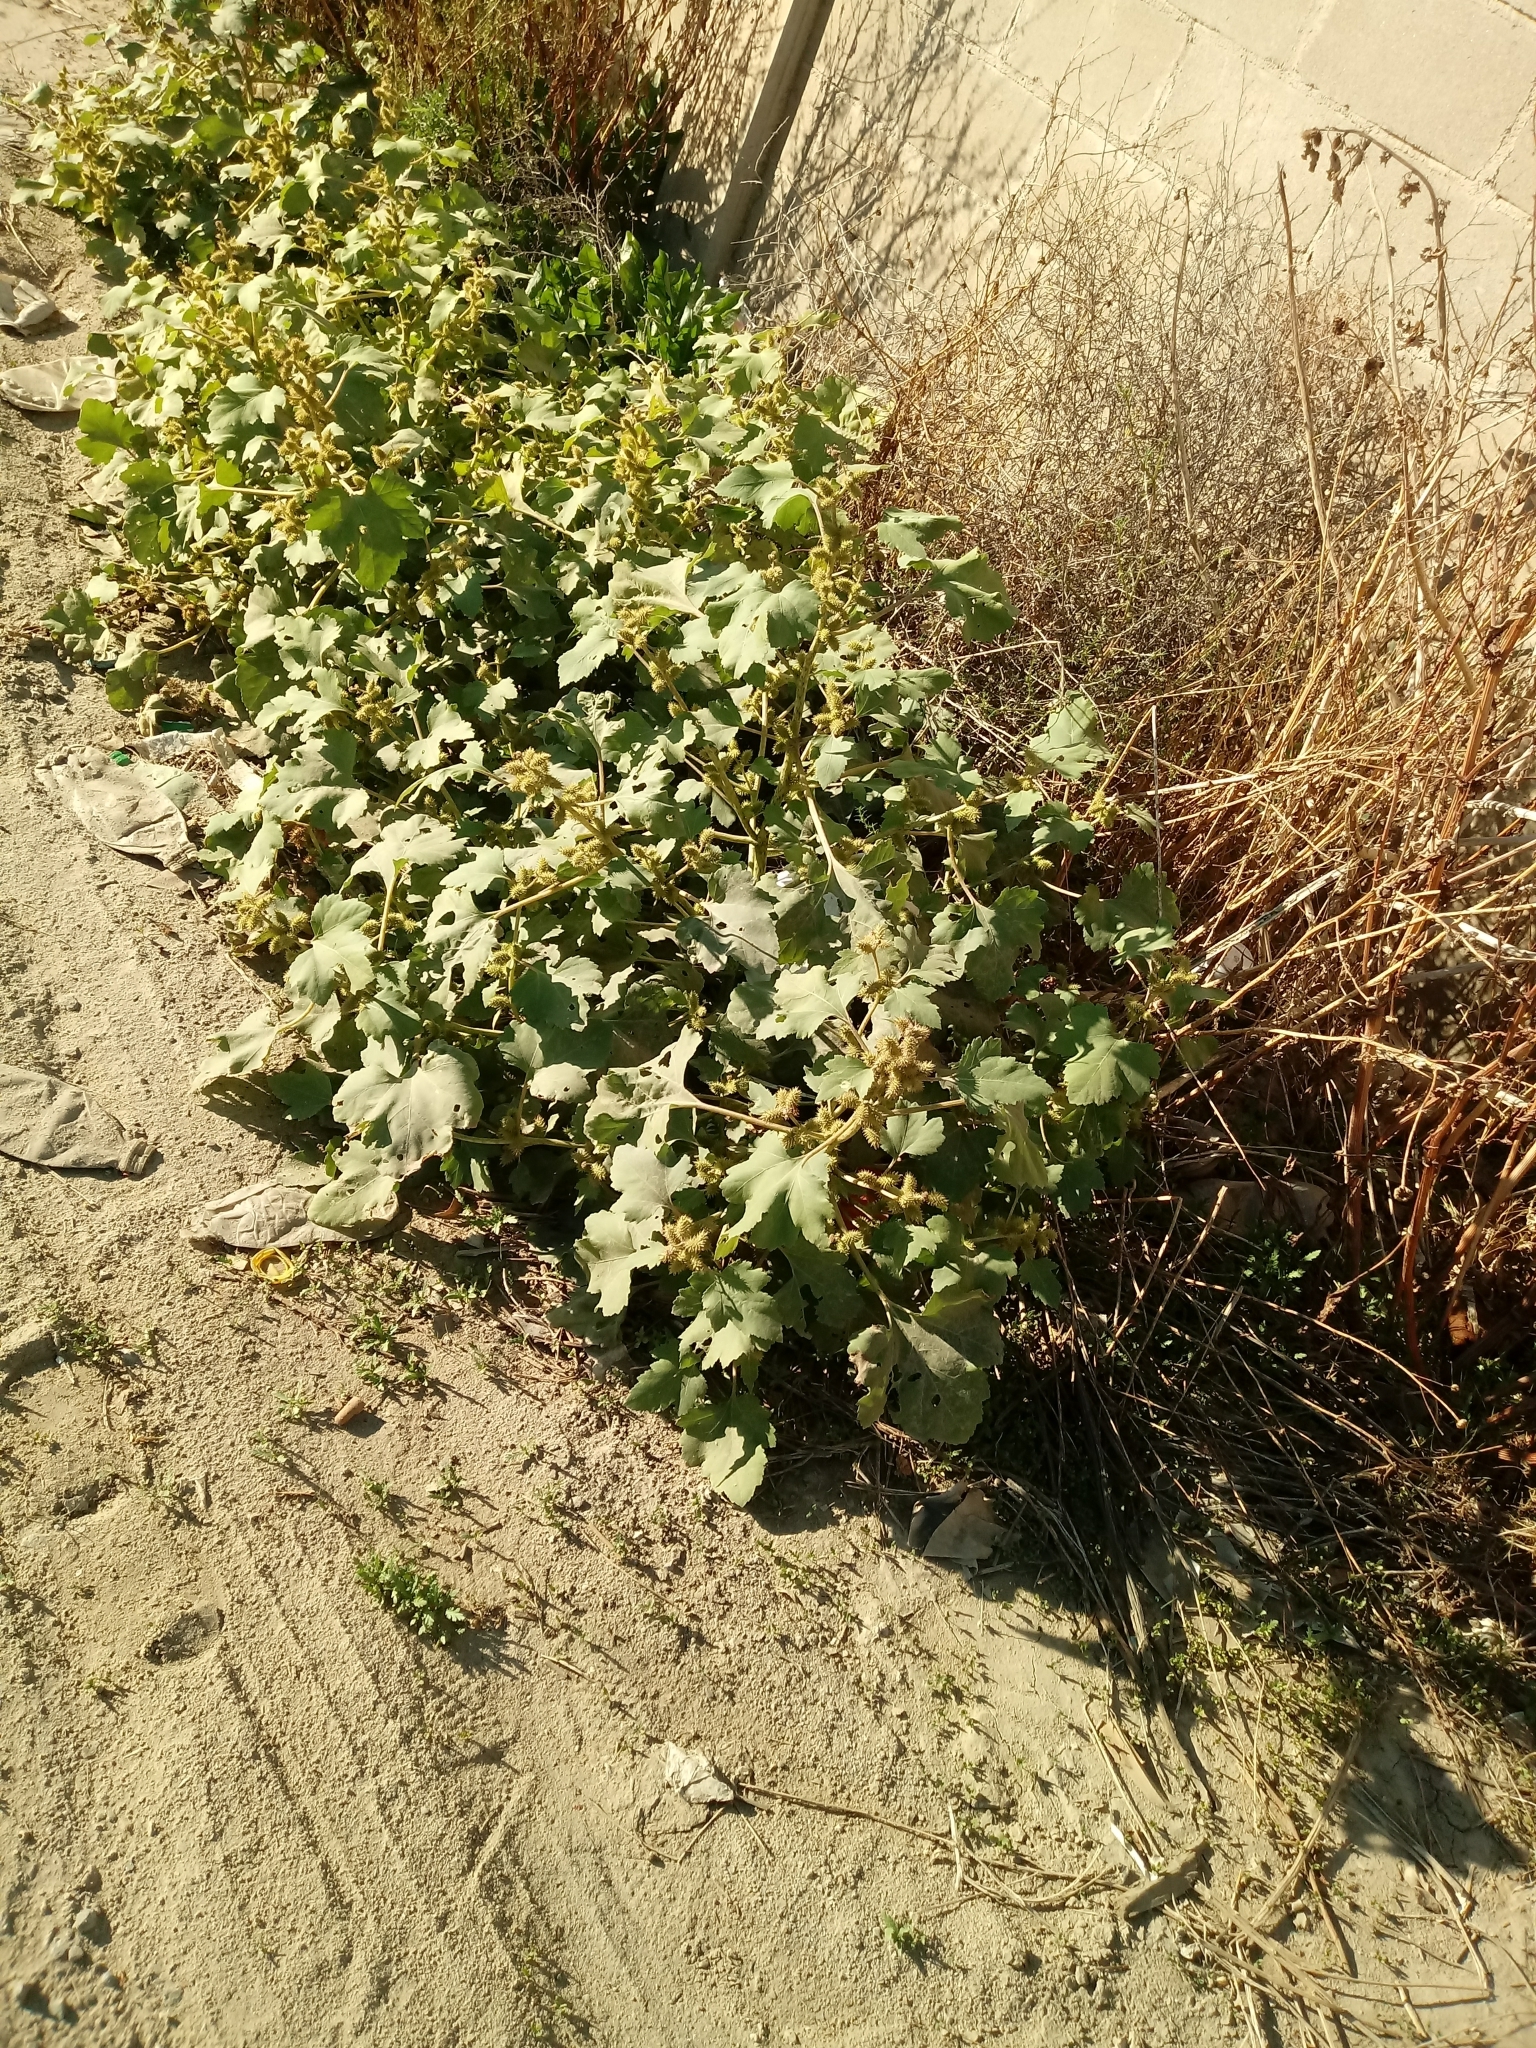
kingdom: Plantae
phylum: Tracheophyta
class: Magnoliopsida
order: Asterales
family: Asteraceae
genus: Xanthium
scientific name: Xanthium strumarium
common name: Rough cocklebur
